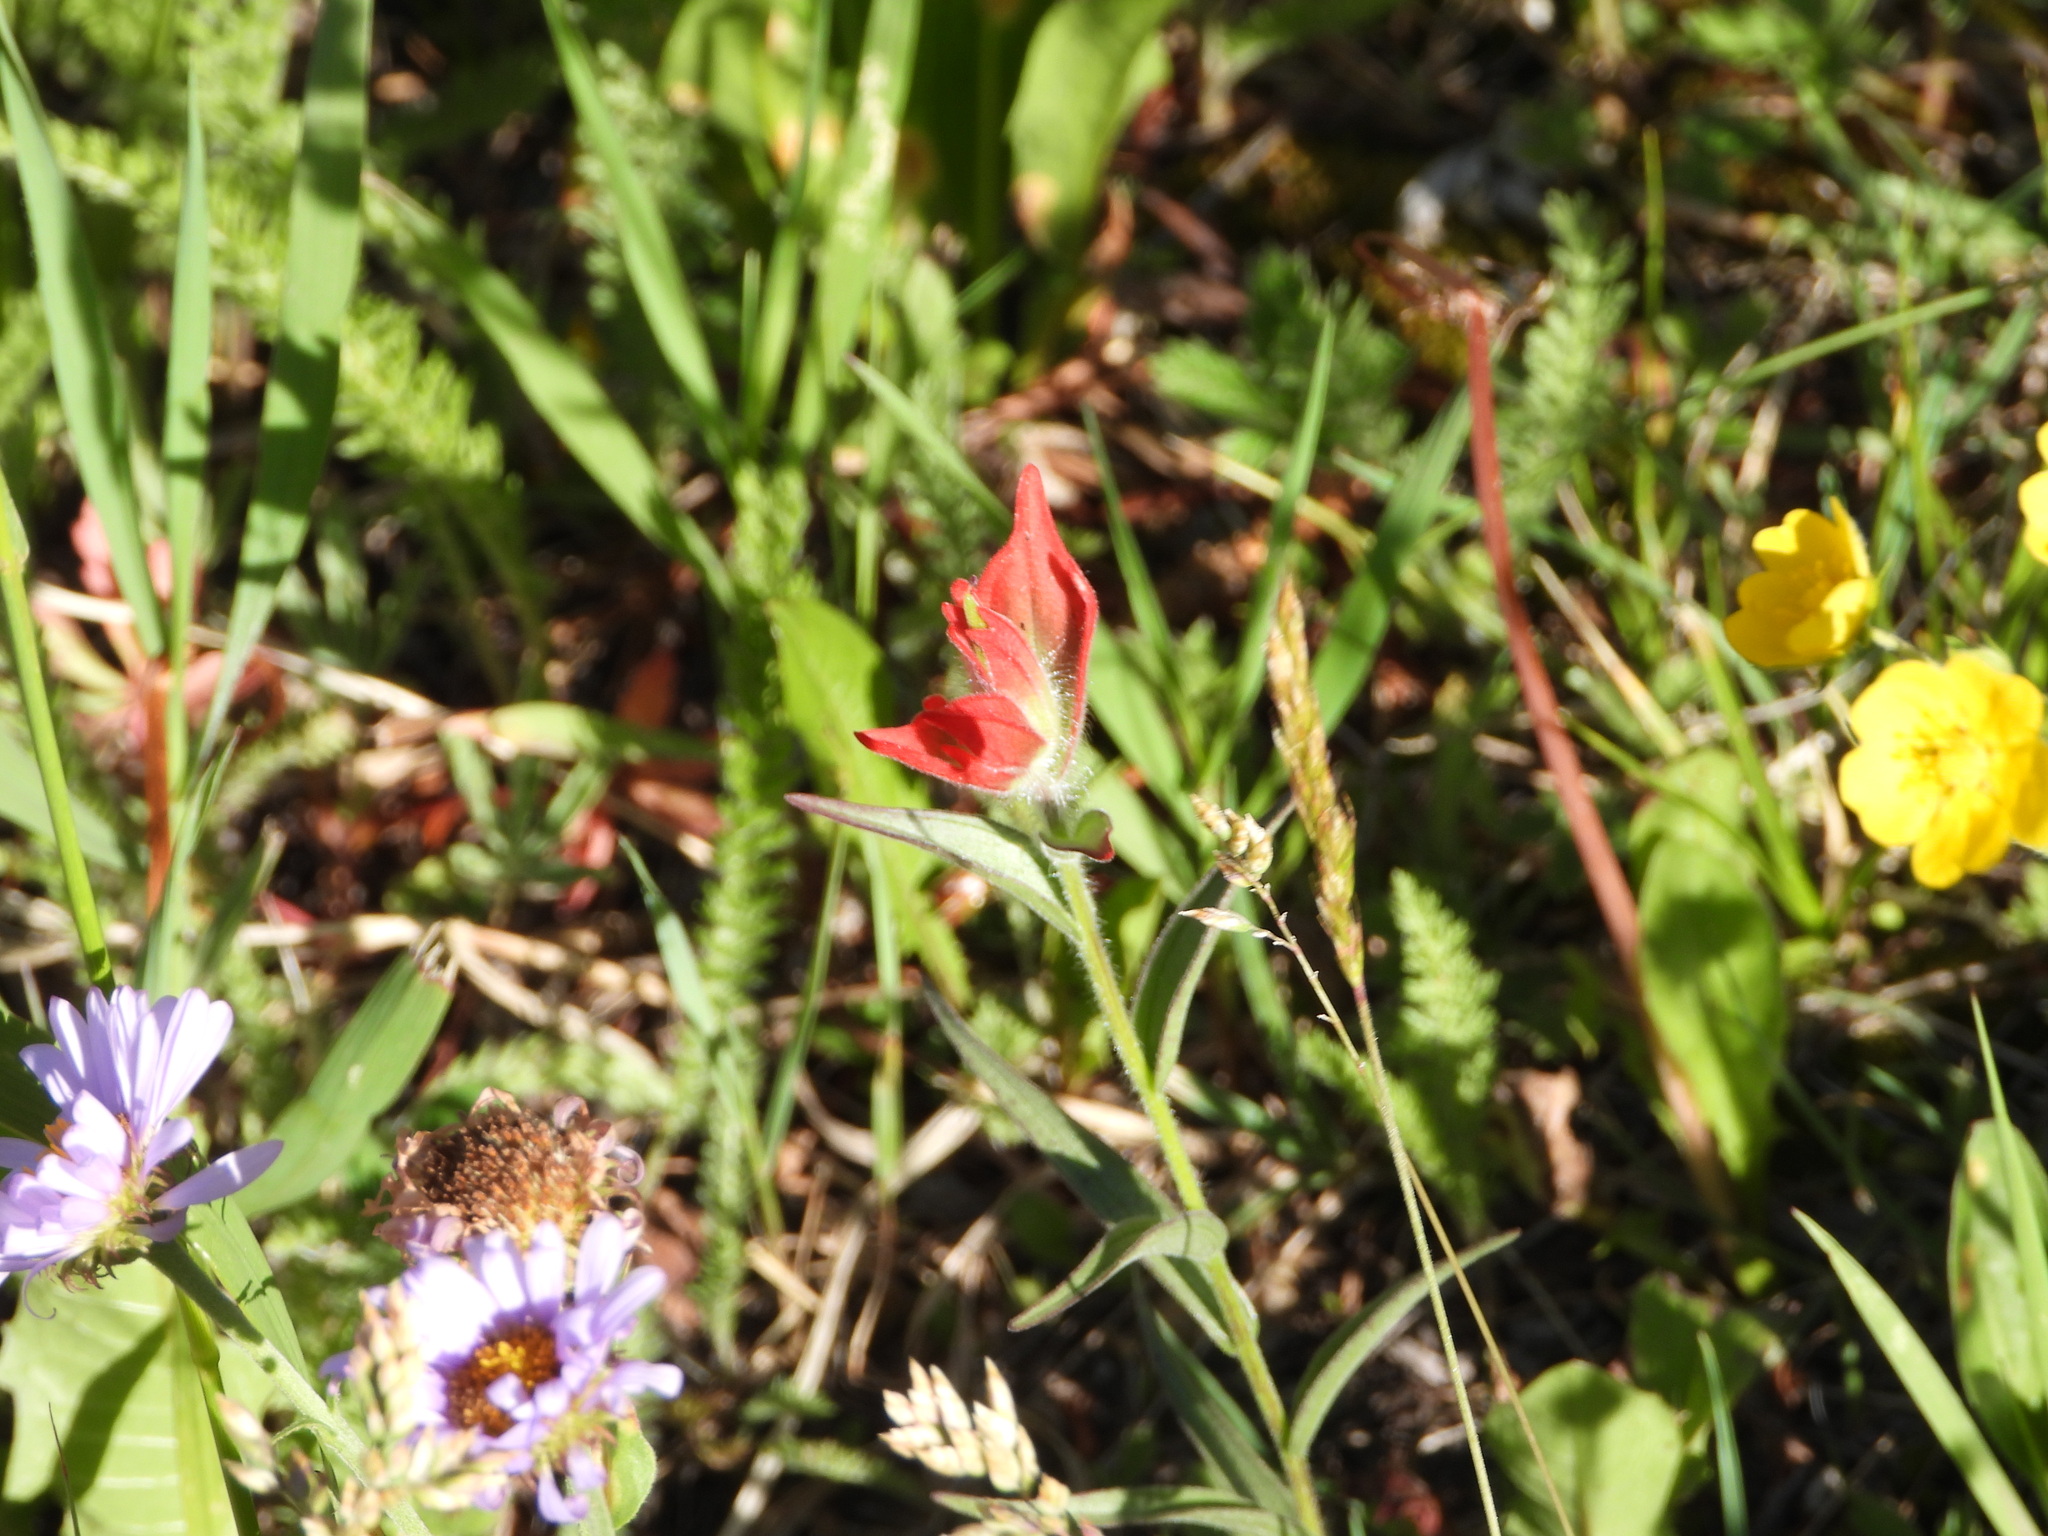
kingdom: Plantae
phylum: Tracheophyta
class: Magnoliopsida
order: Lamiales
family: Orobanchaceae
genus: Castilleja
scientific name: Castilleja miniata
